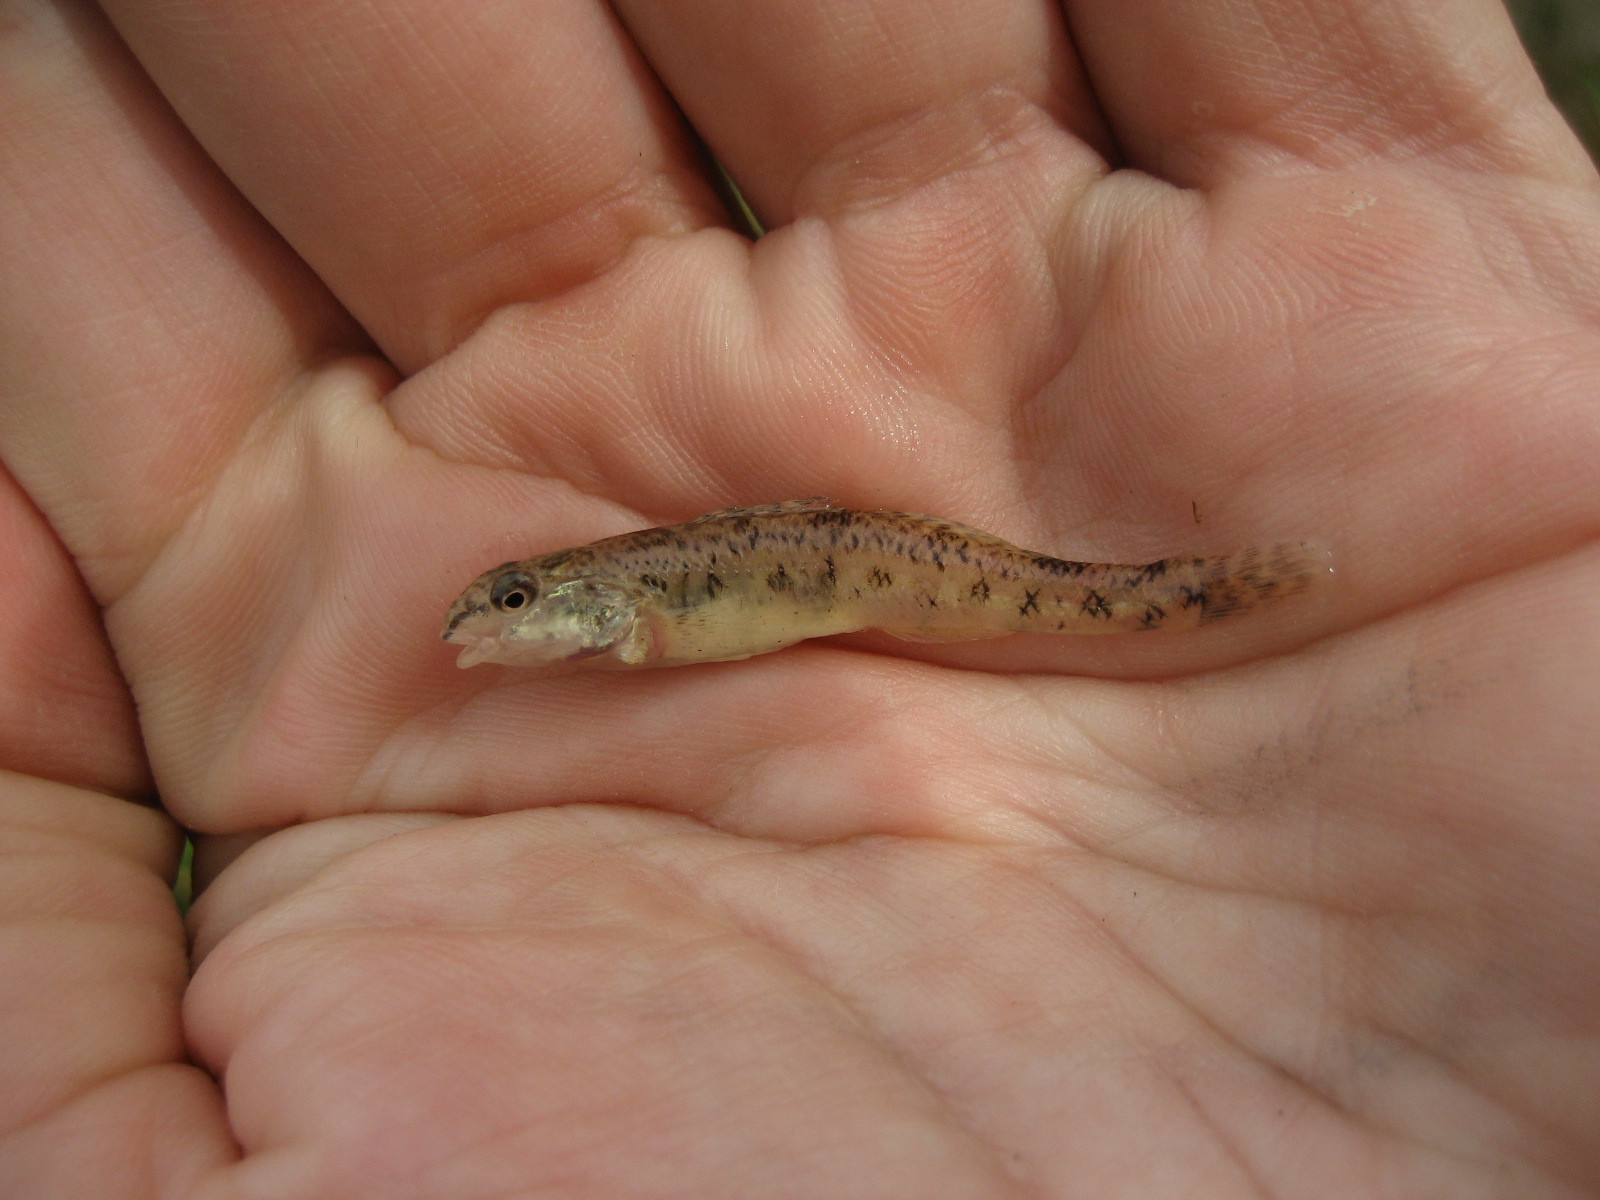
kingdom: Animalia
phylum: Chordata
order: Perciformes
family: Percidae
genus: Etheostoma
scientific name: Etheostoma nigrum
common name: Johnny darter
